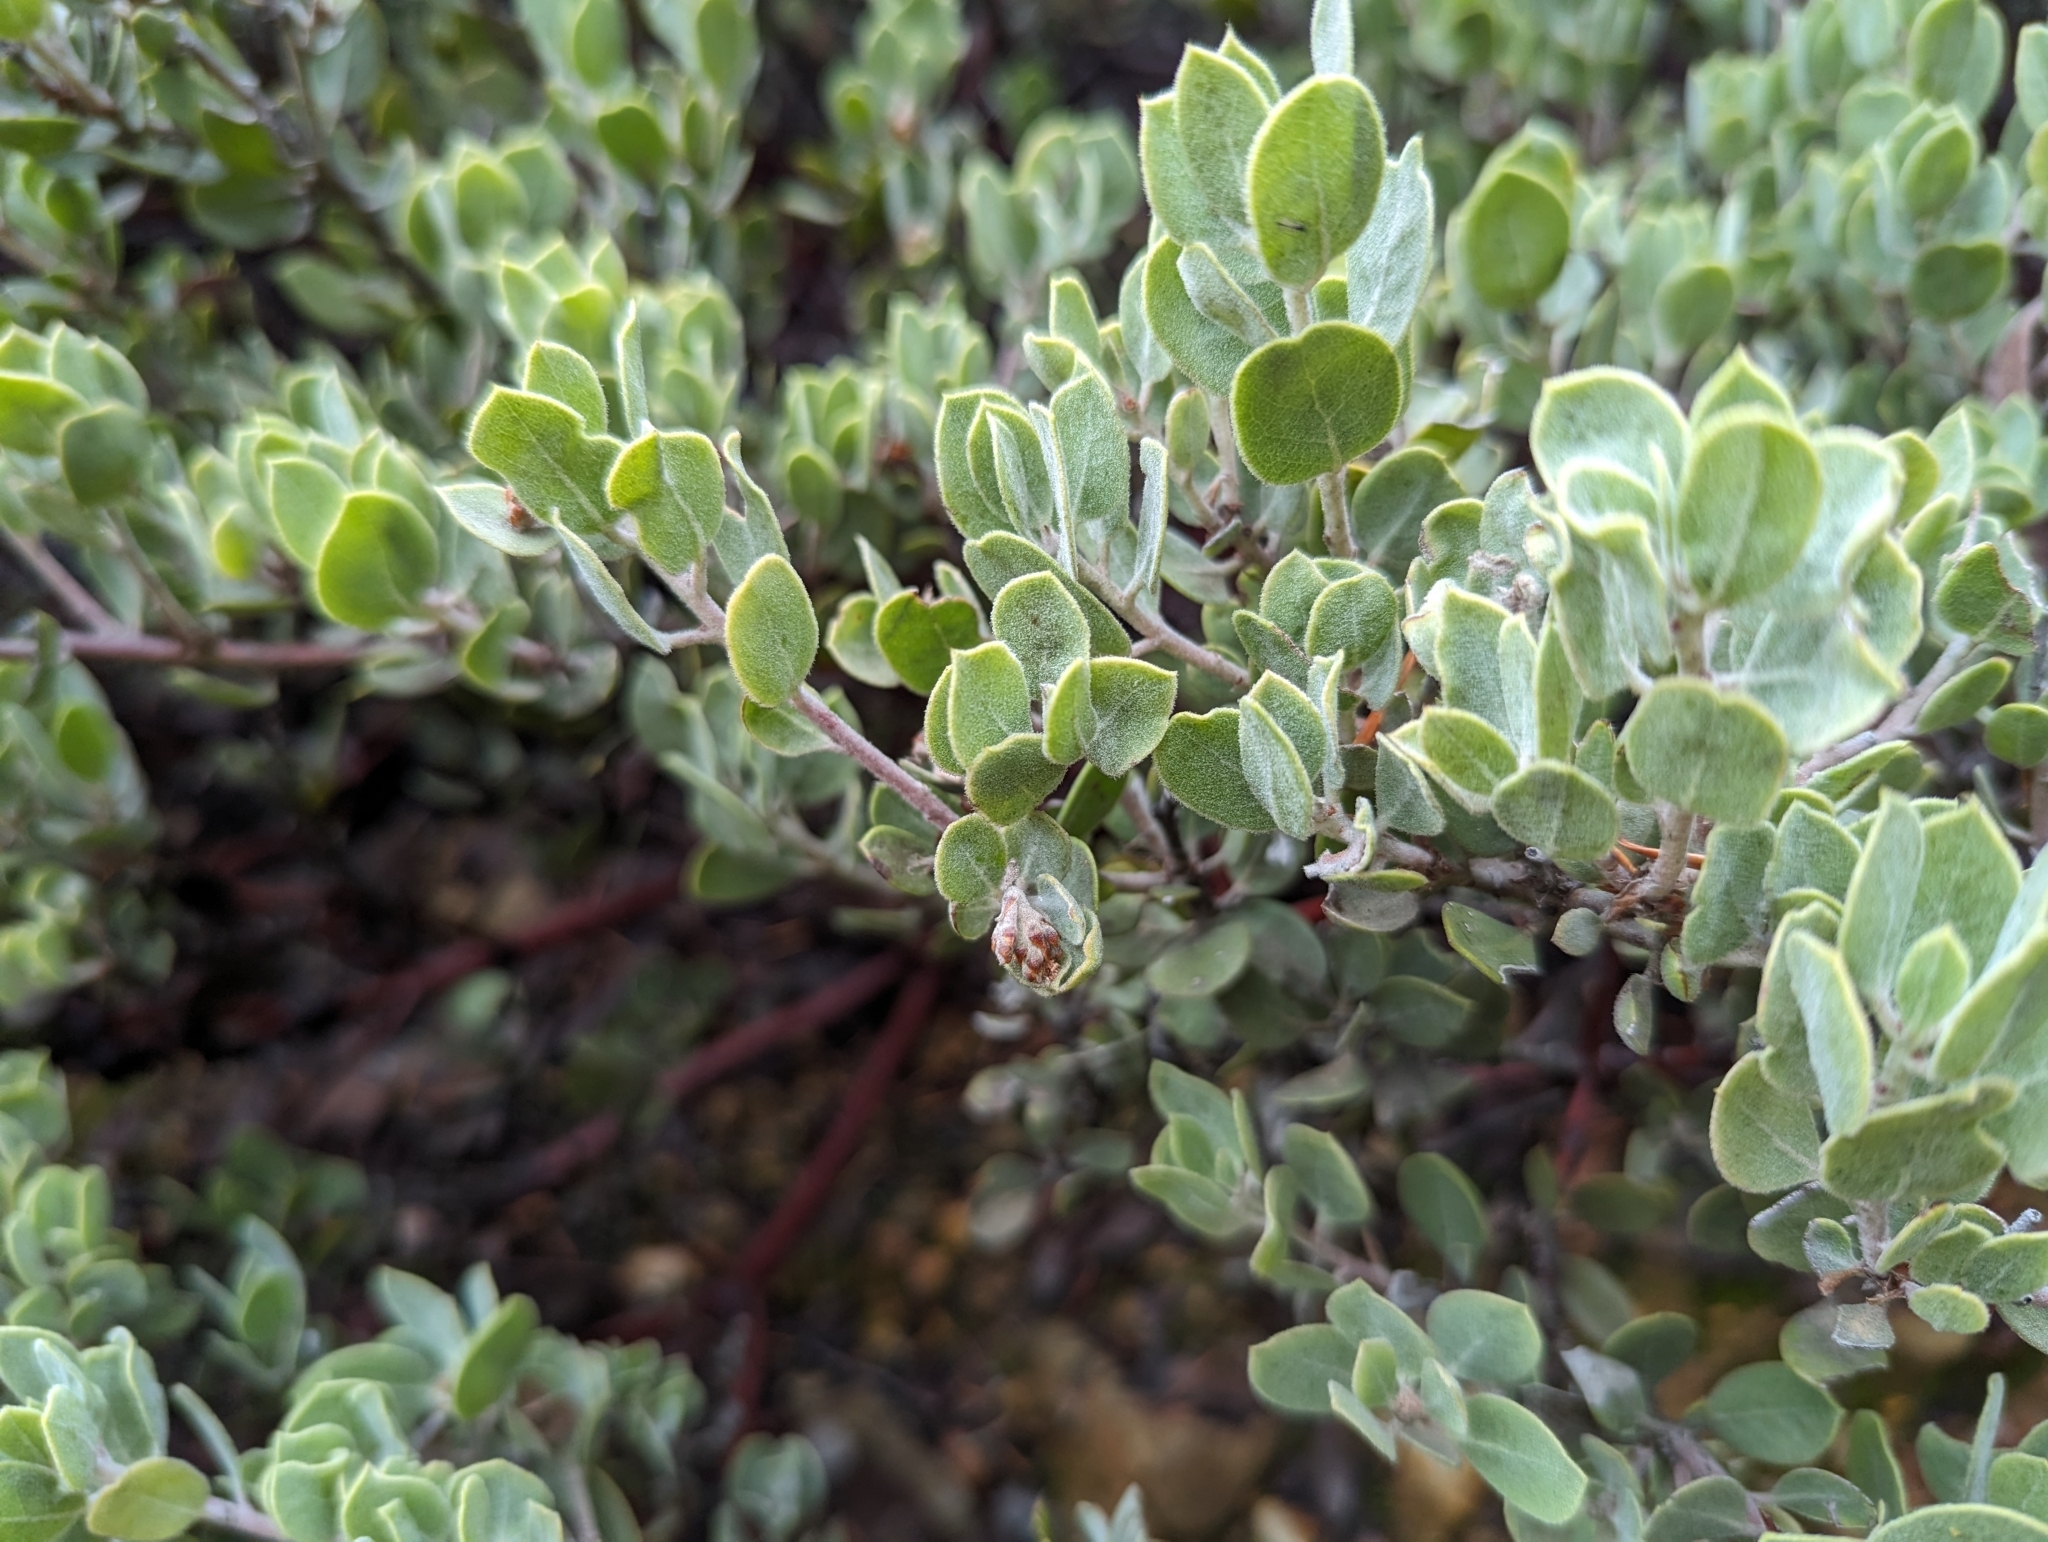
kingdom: Plantae
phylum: Tracheophyta
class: Magnoliopsida
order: Ericales
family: Ericaceae
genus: Arctostaphylos
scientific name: Arctostaphylos montana
